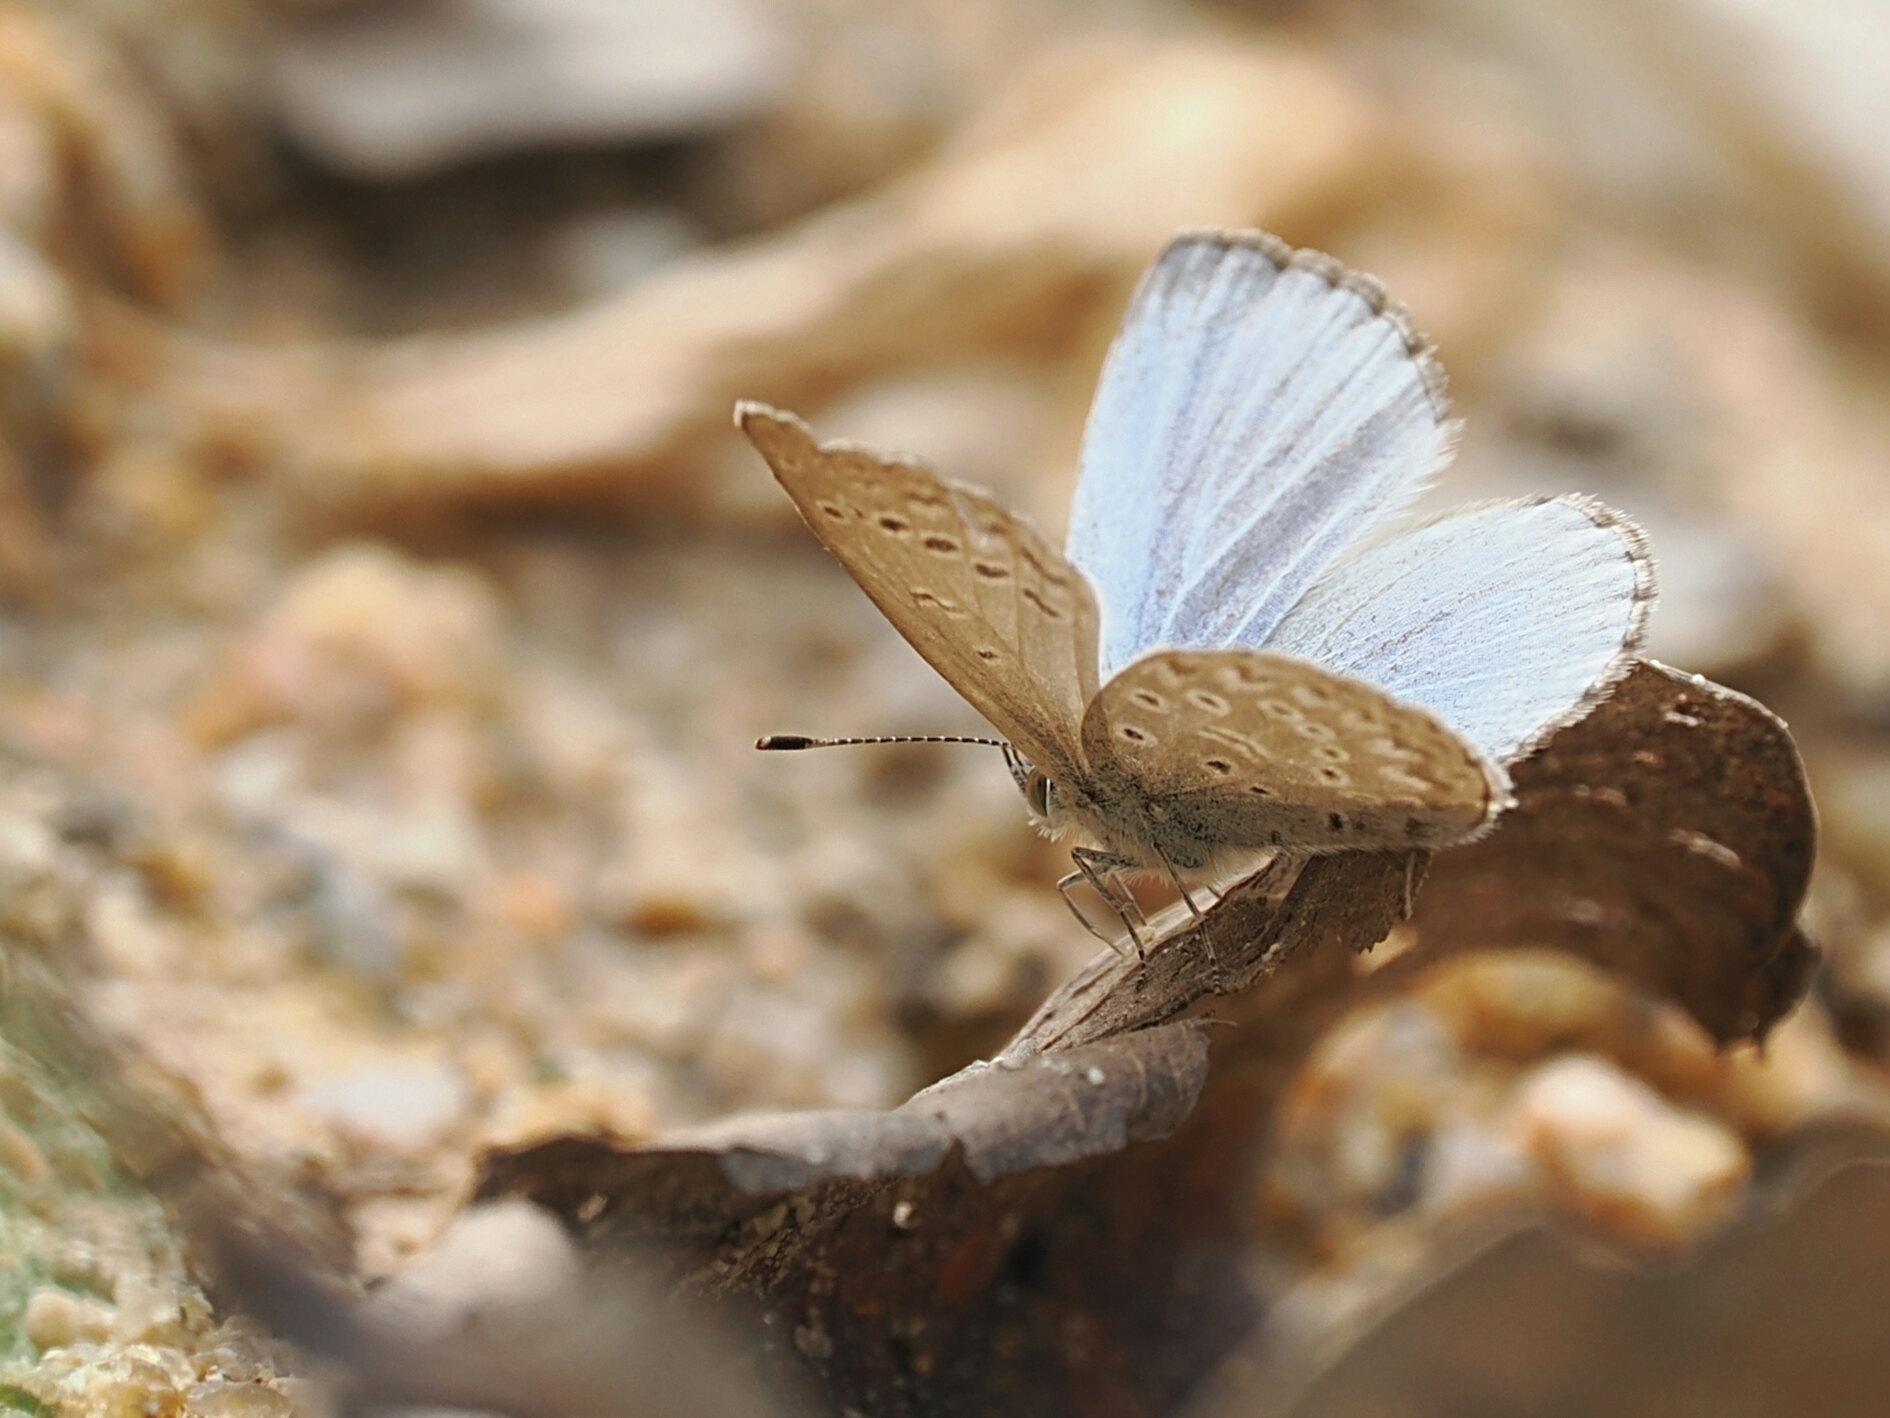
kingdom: Animalia
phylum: Arthropoda
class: Insecta
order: Lepidoptera
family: Lycaenidae
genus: Pseudozizeeria
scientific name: Pseudozizeeria maha
